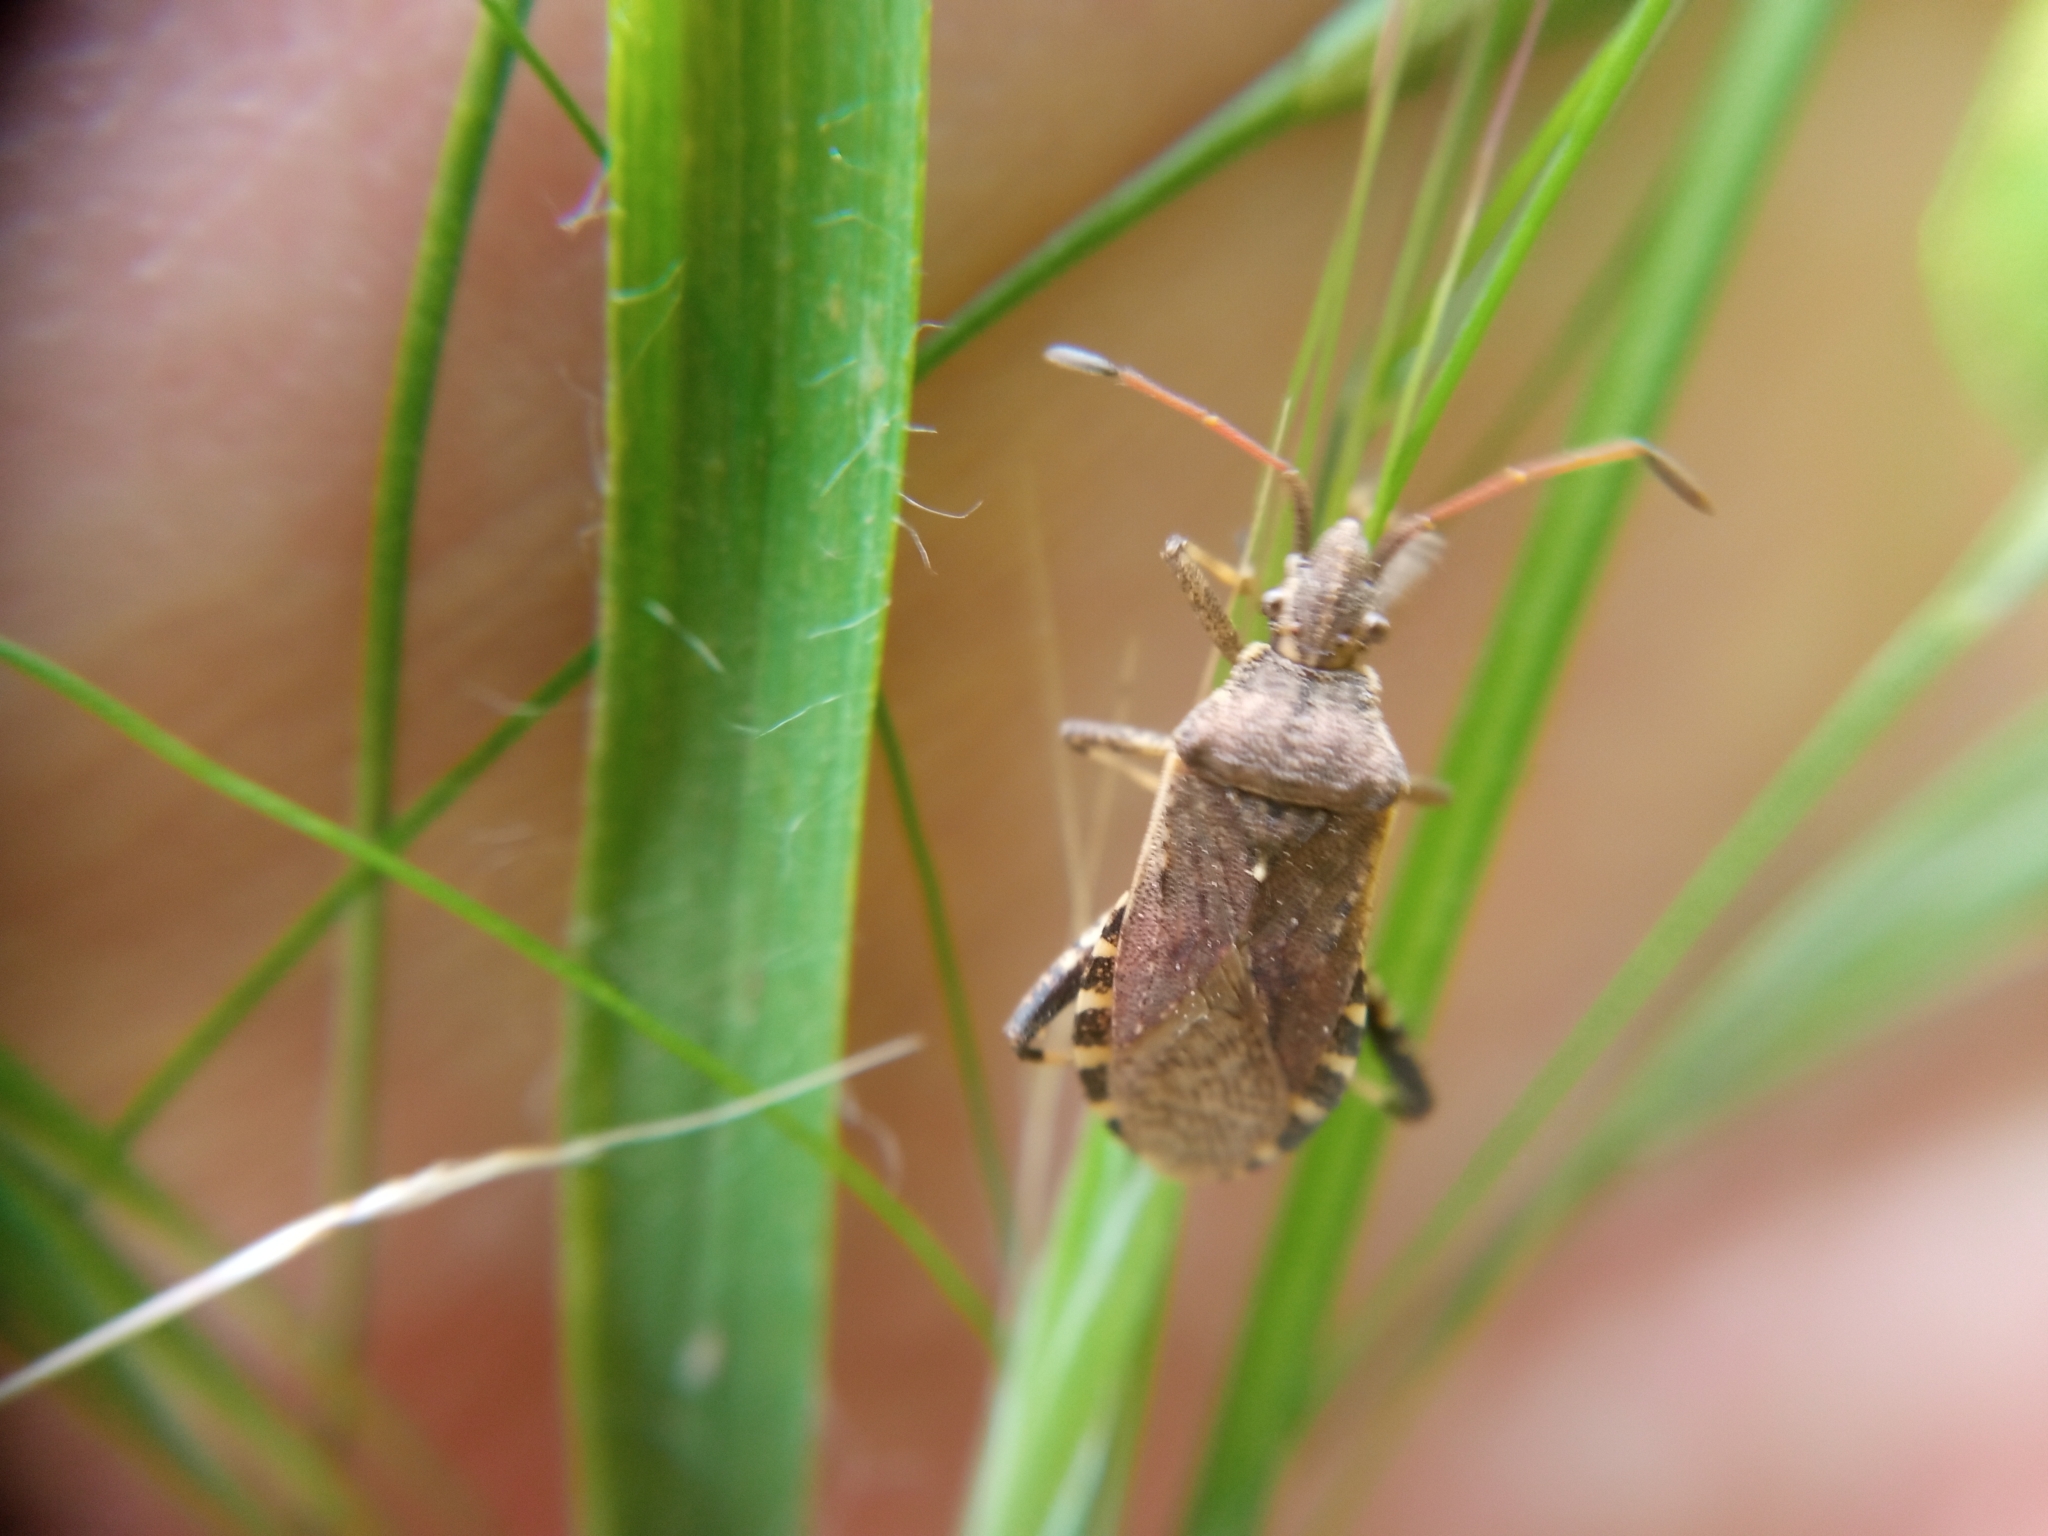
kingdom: Animalia
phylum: Arthropoda
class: Insecta
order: Hemiptera
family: Coreidae
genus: Ceraleptus
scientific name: Ceraleptus gracilicornis
